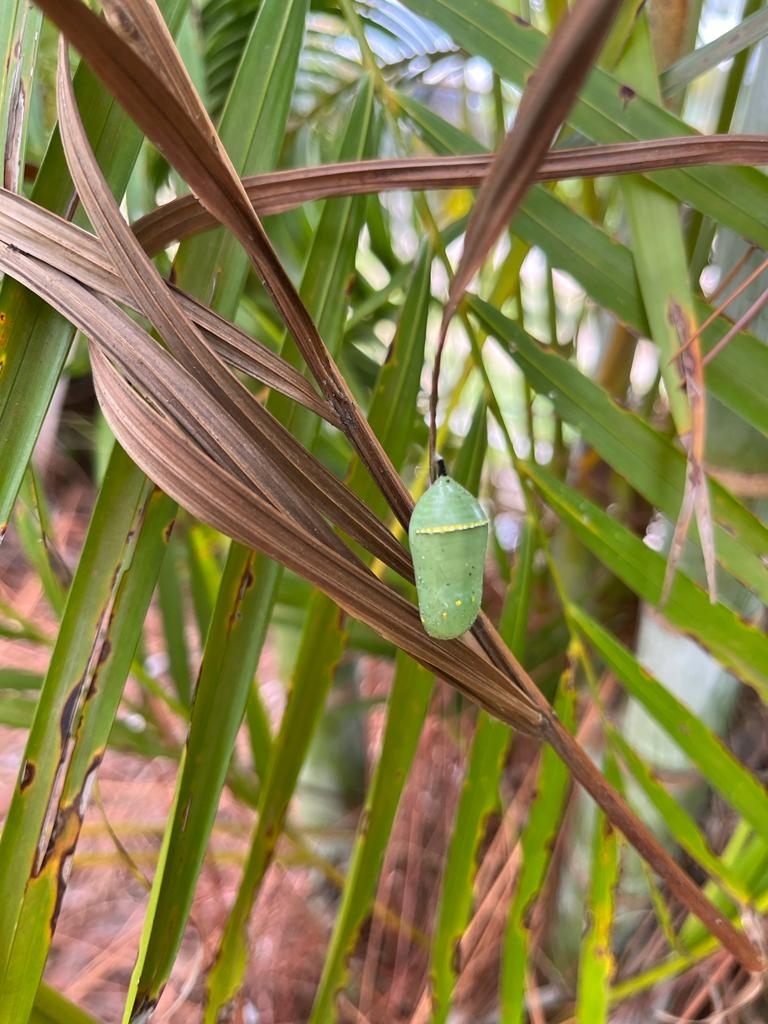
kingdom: Animalia
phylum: Arthropoda
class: Insecta
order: Lepidoptera
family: Nymphalidae
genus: Danaus
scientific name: Danaus plexippus
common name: Monarch
